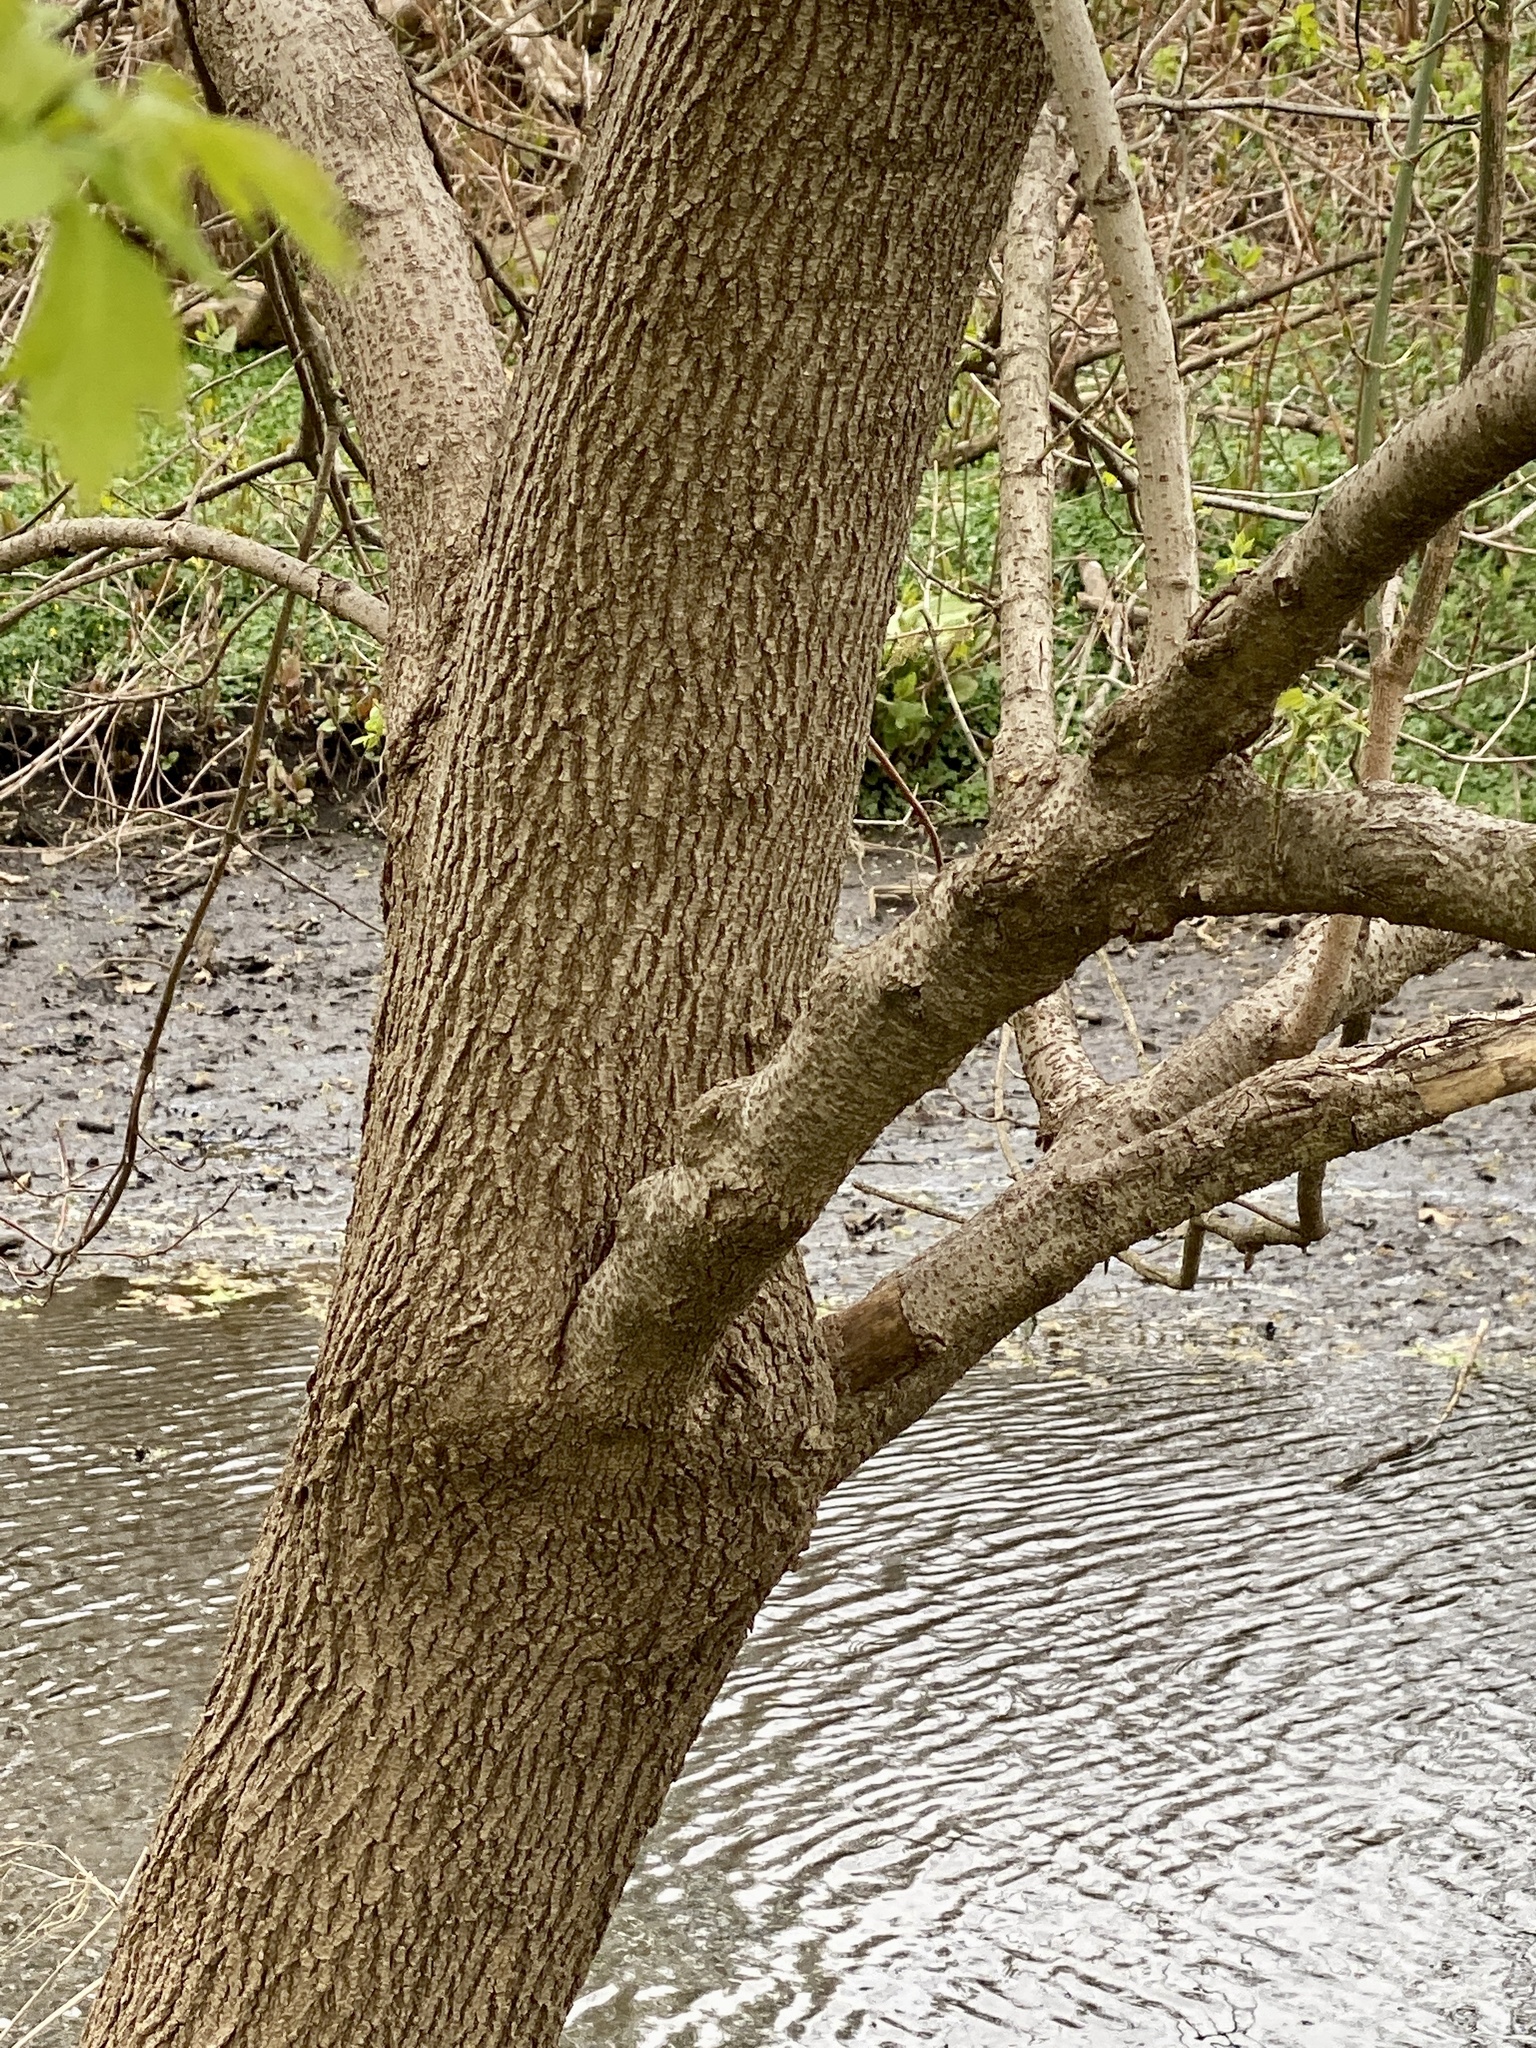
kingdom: Plantae
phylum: Tracheophyta
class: Magnoliopsida
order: Sapindales
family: Sapindaceae
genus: Acer
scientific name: Acer negundo
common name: Ashleaf maple
